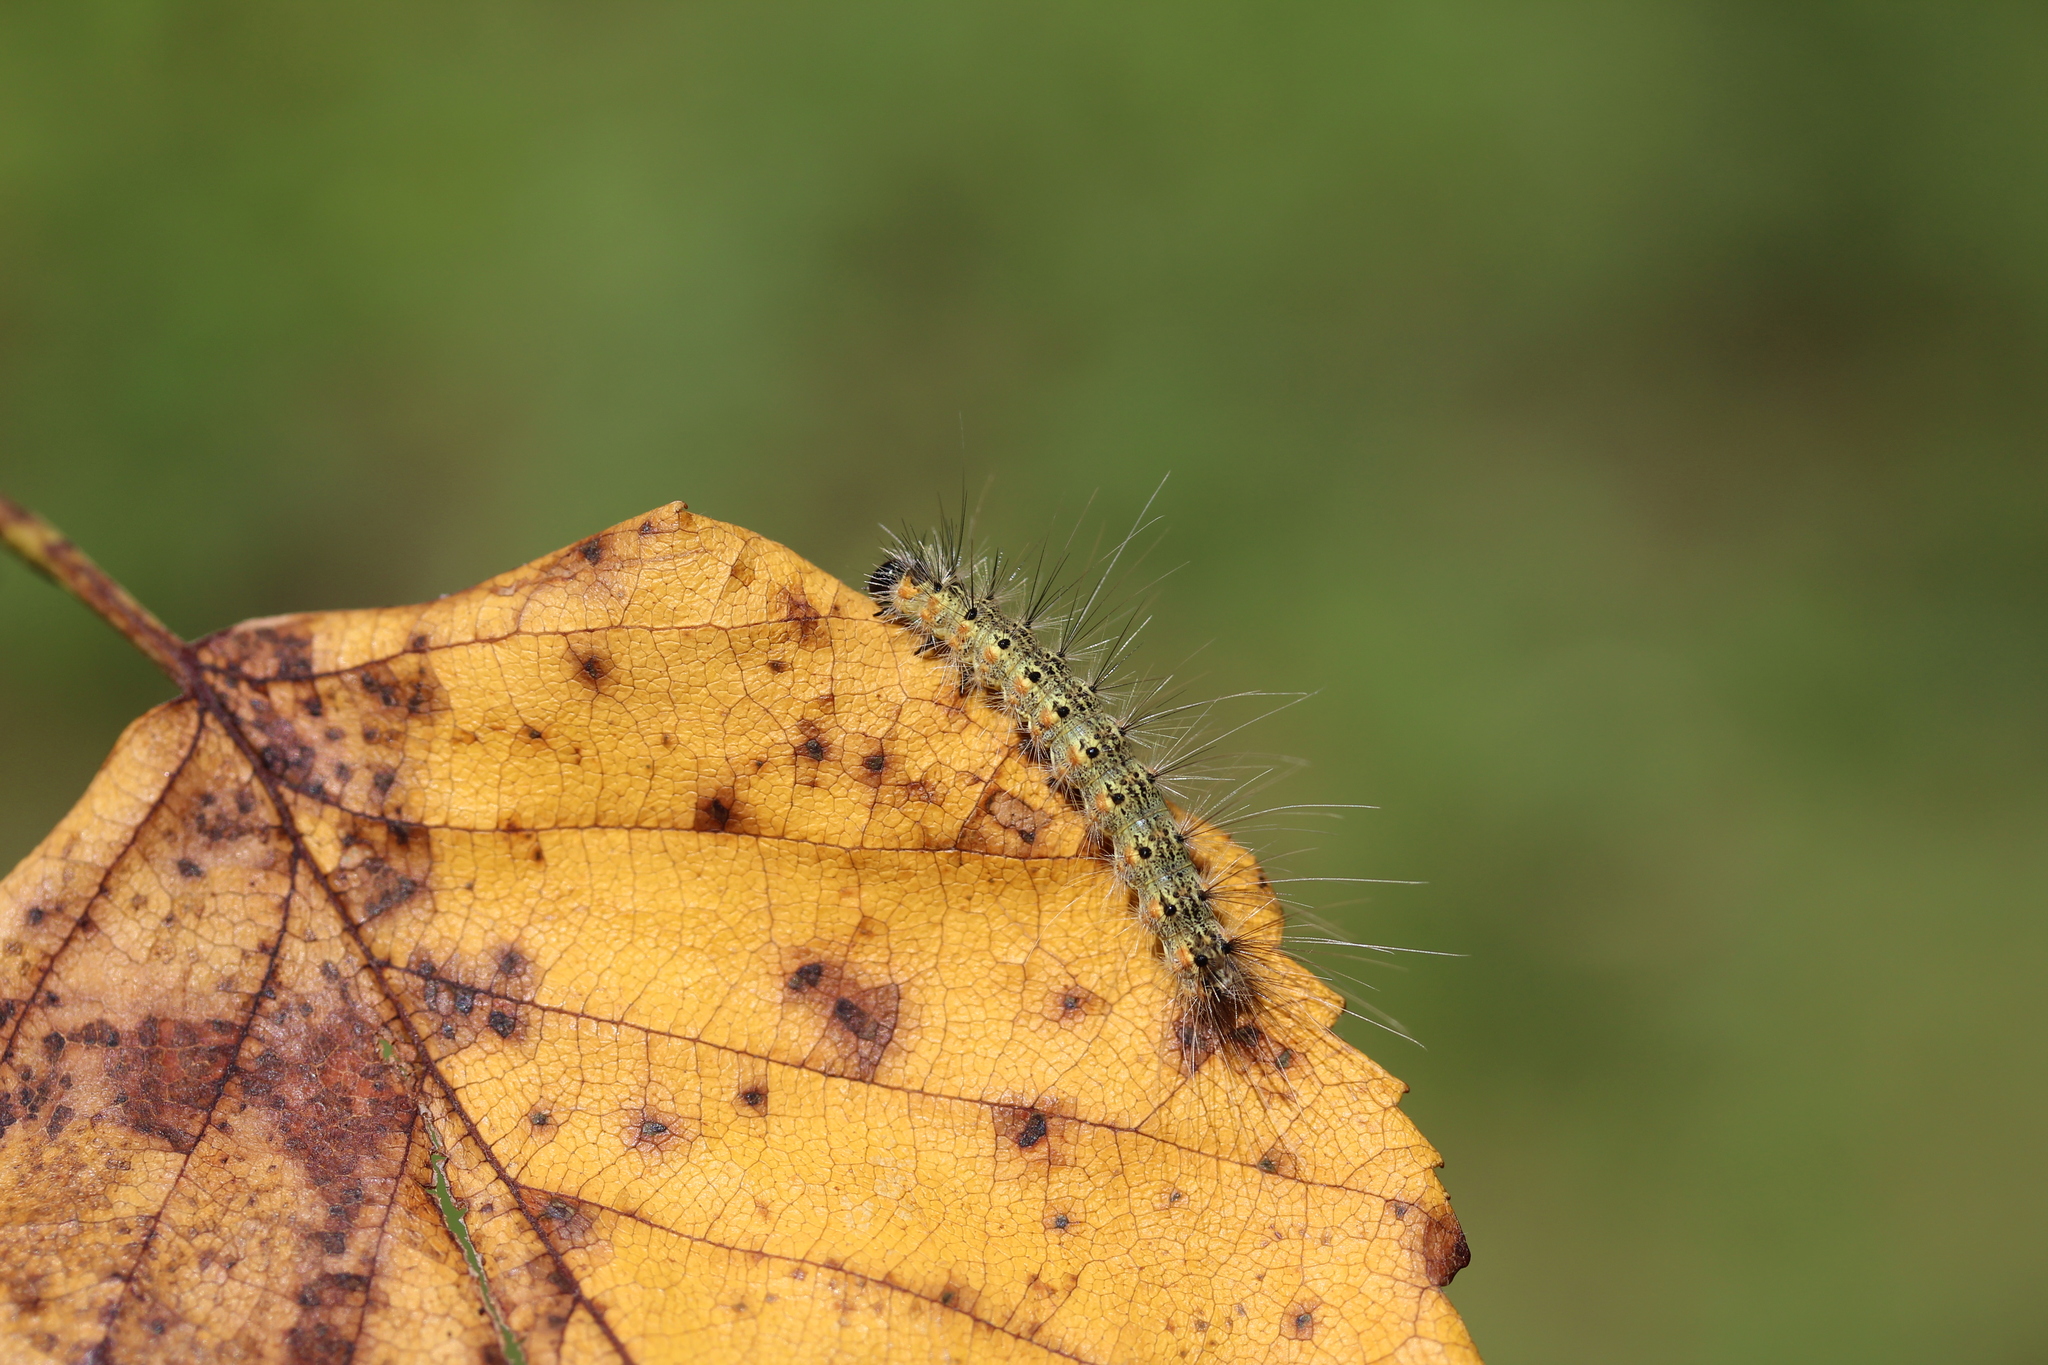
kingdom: Animalia
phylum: Arthropoda
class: Insecta
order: Lepidoptera
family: Erebidae
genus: Hyphantria
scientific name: Hyphantria cunea
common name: American white moth
